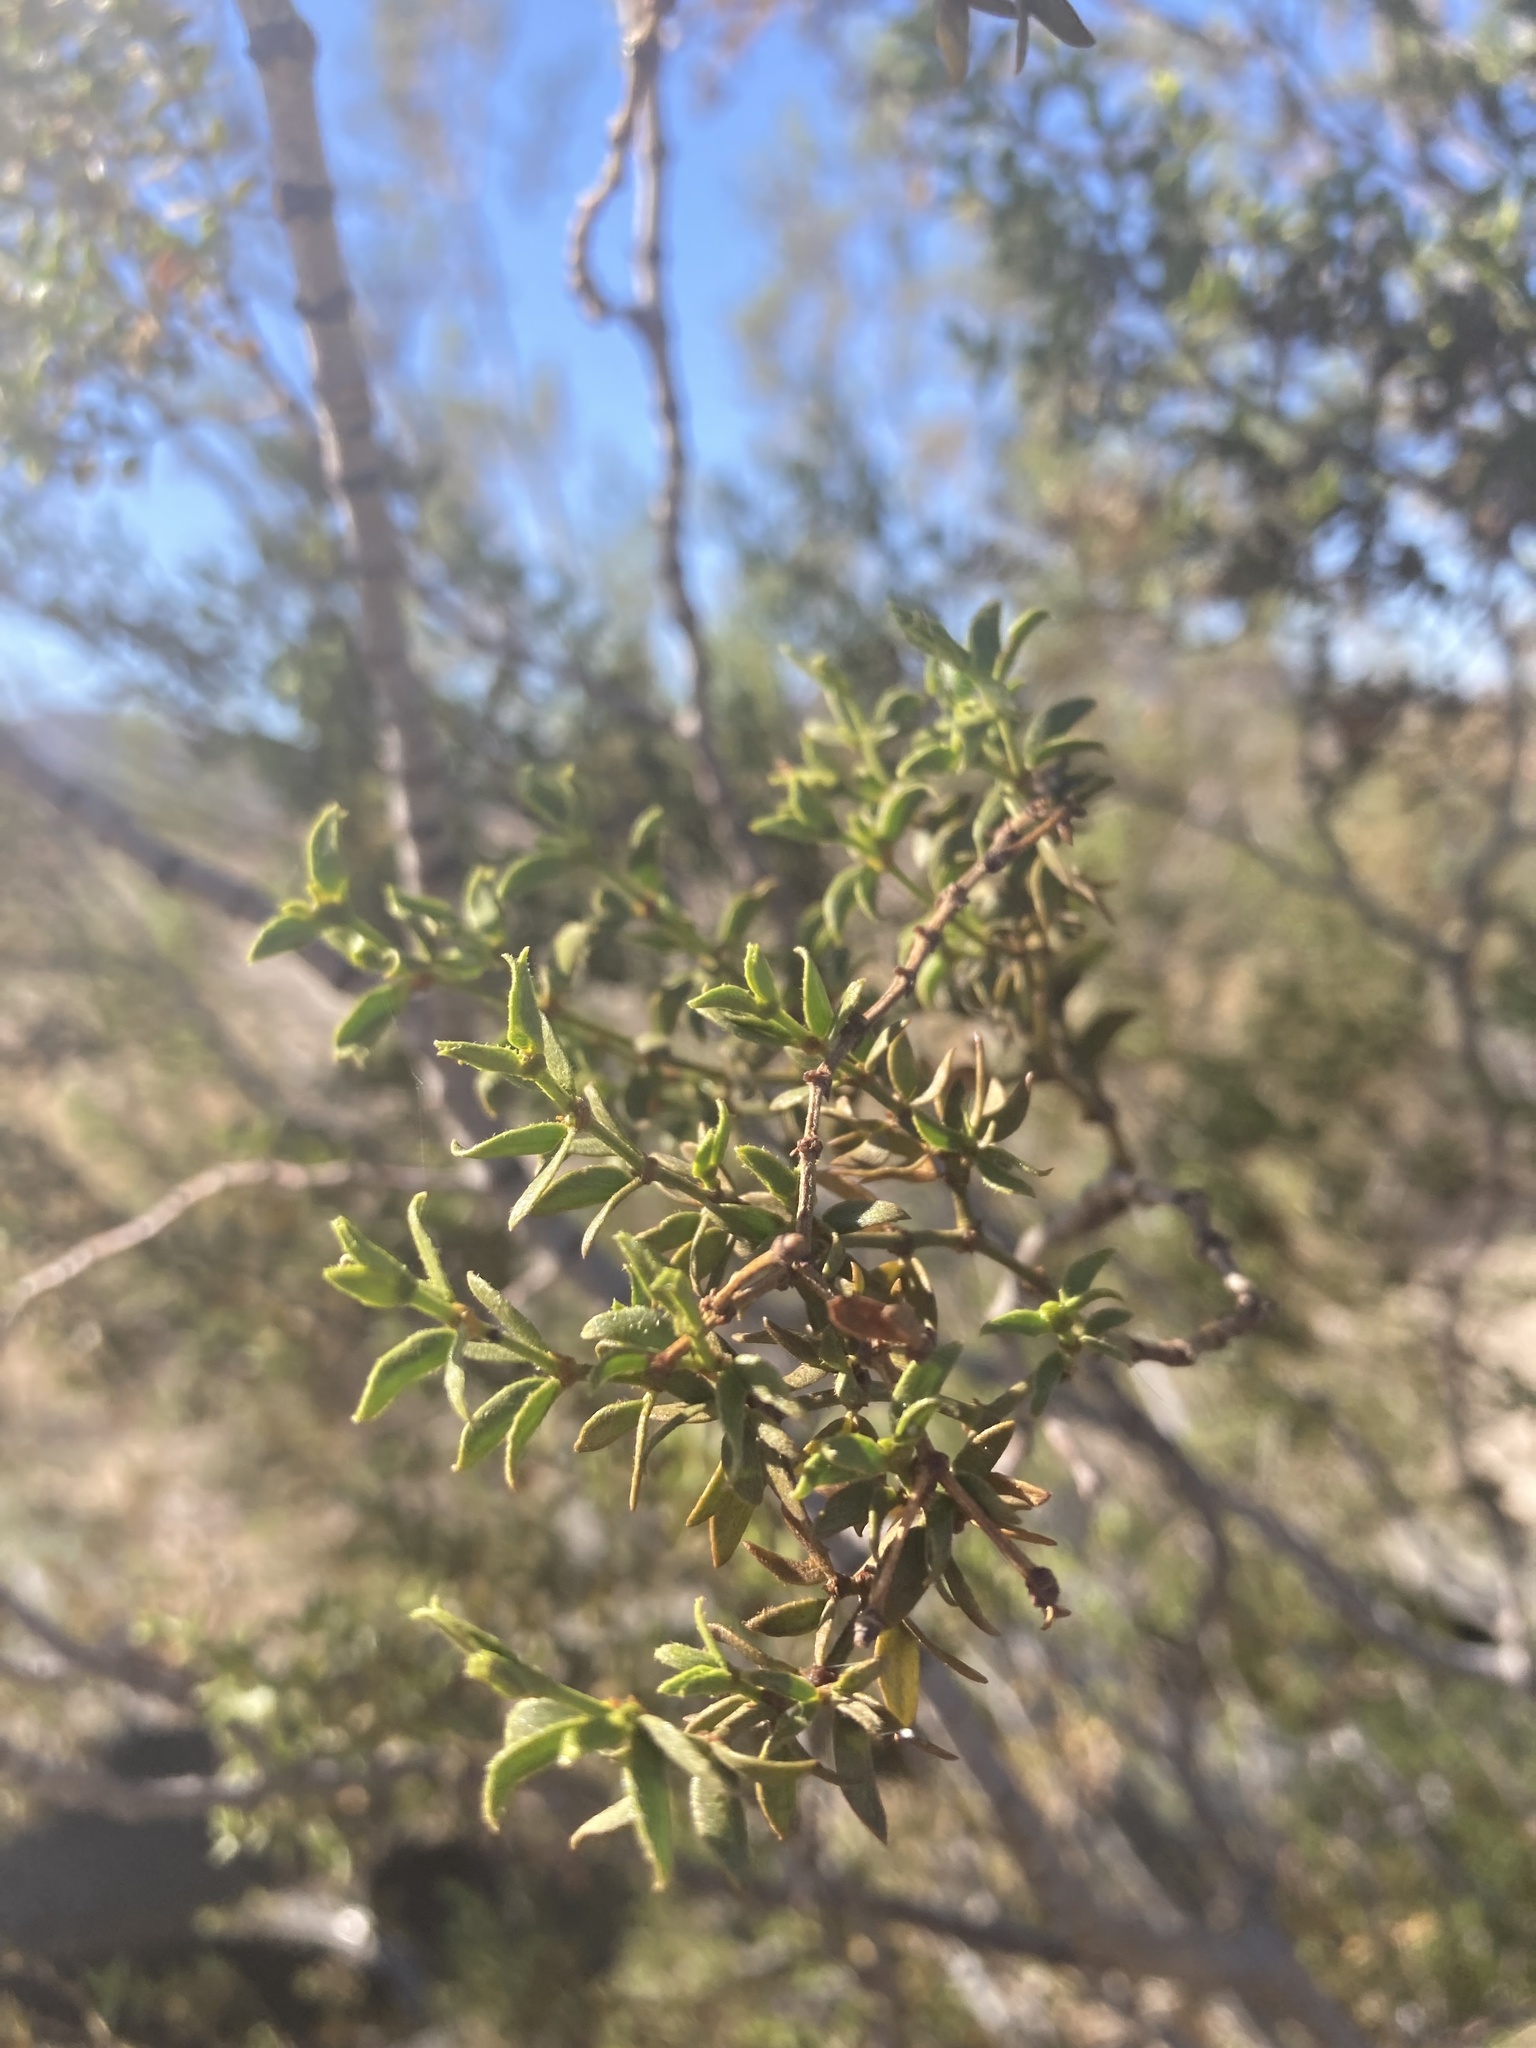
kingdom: Plantae
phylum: Tracheophyta
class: Magnoliopsida
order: Zygophyllales
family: Zygophyllaceae
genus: Larrea
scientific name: Larrea tridentata
